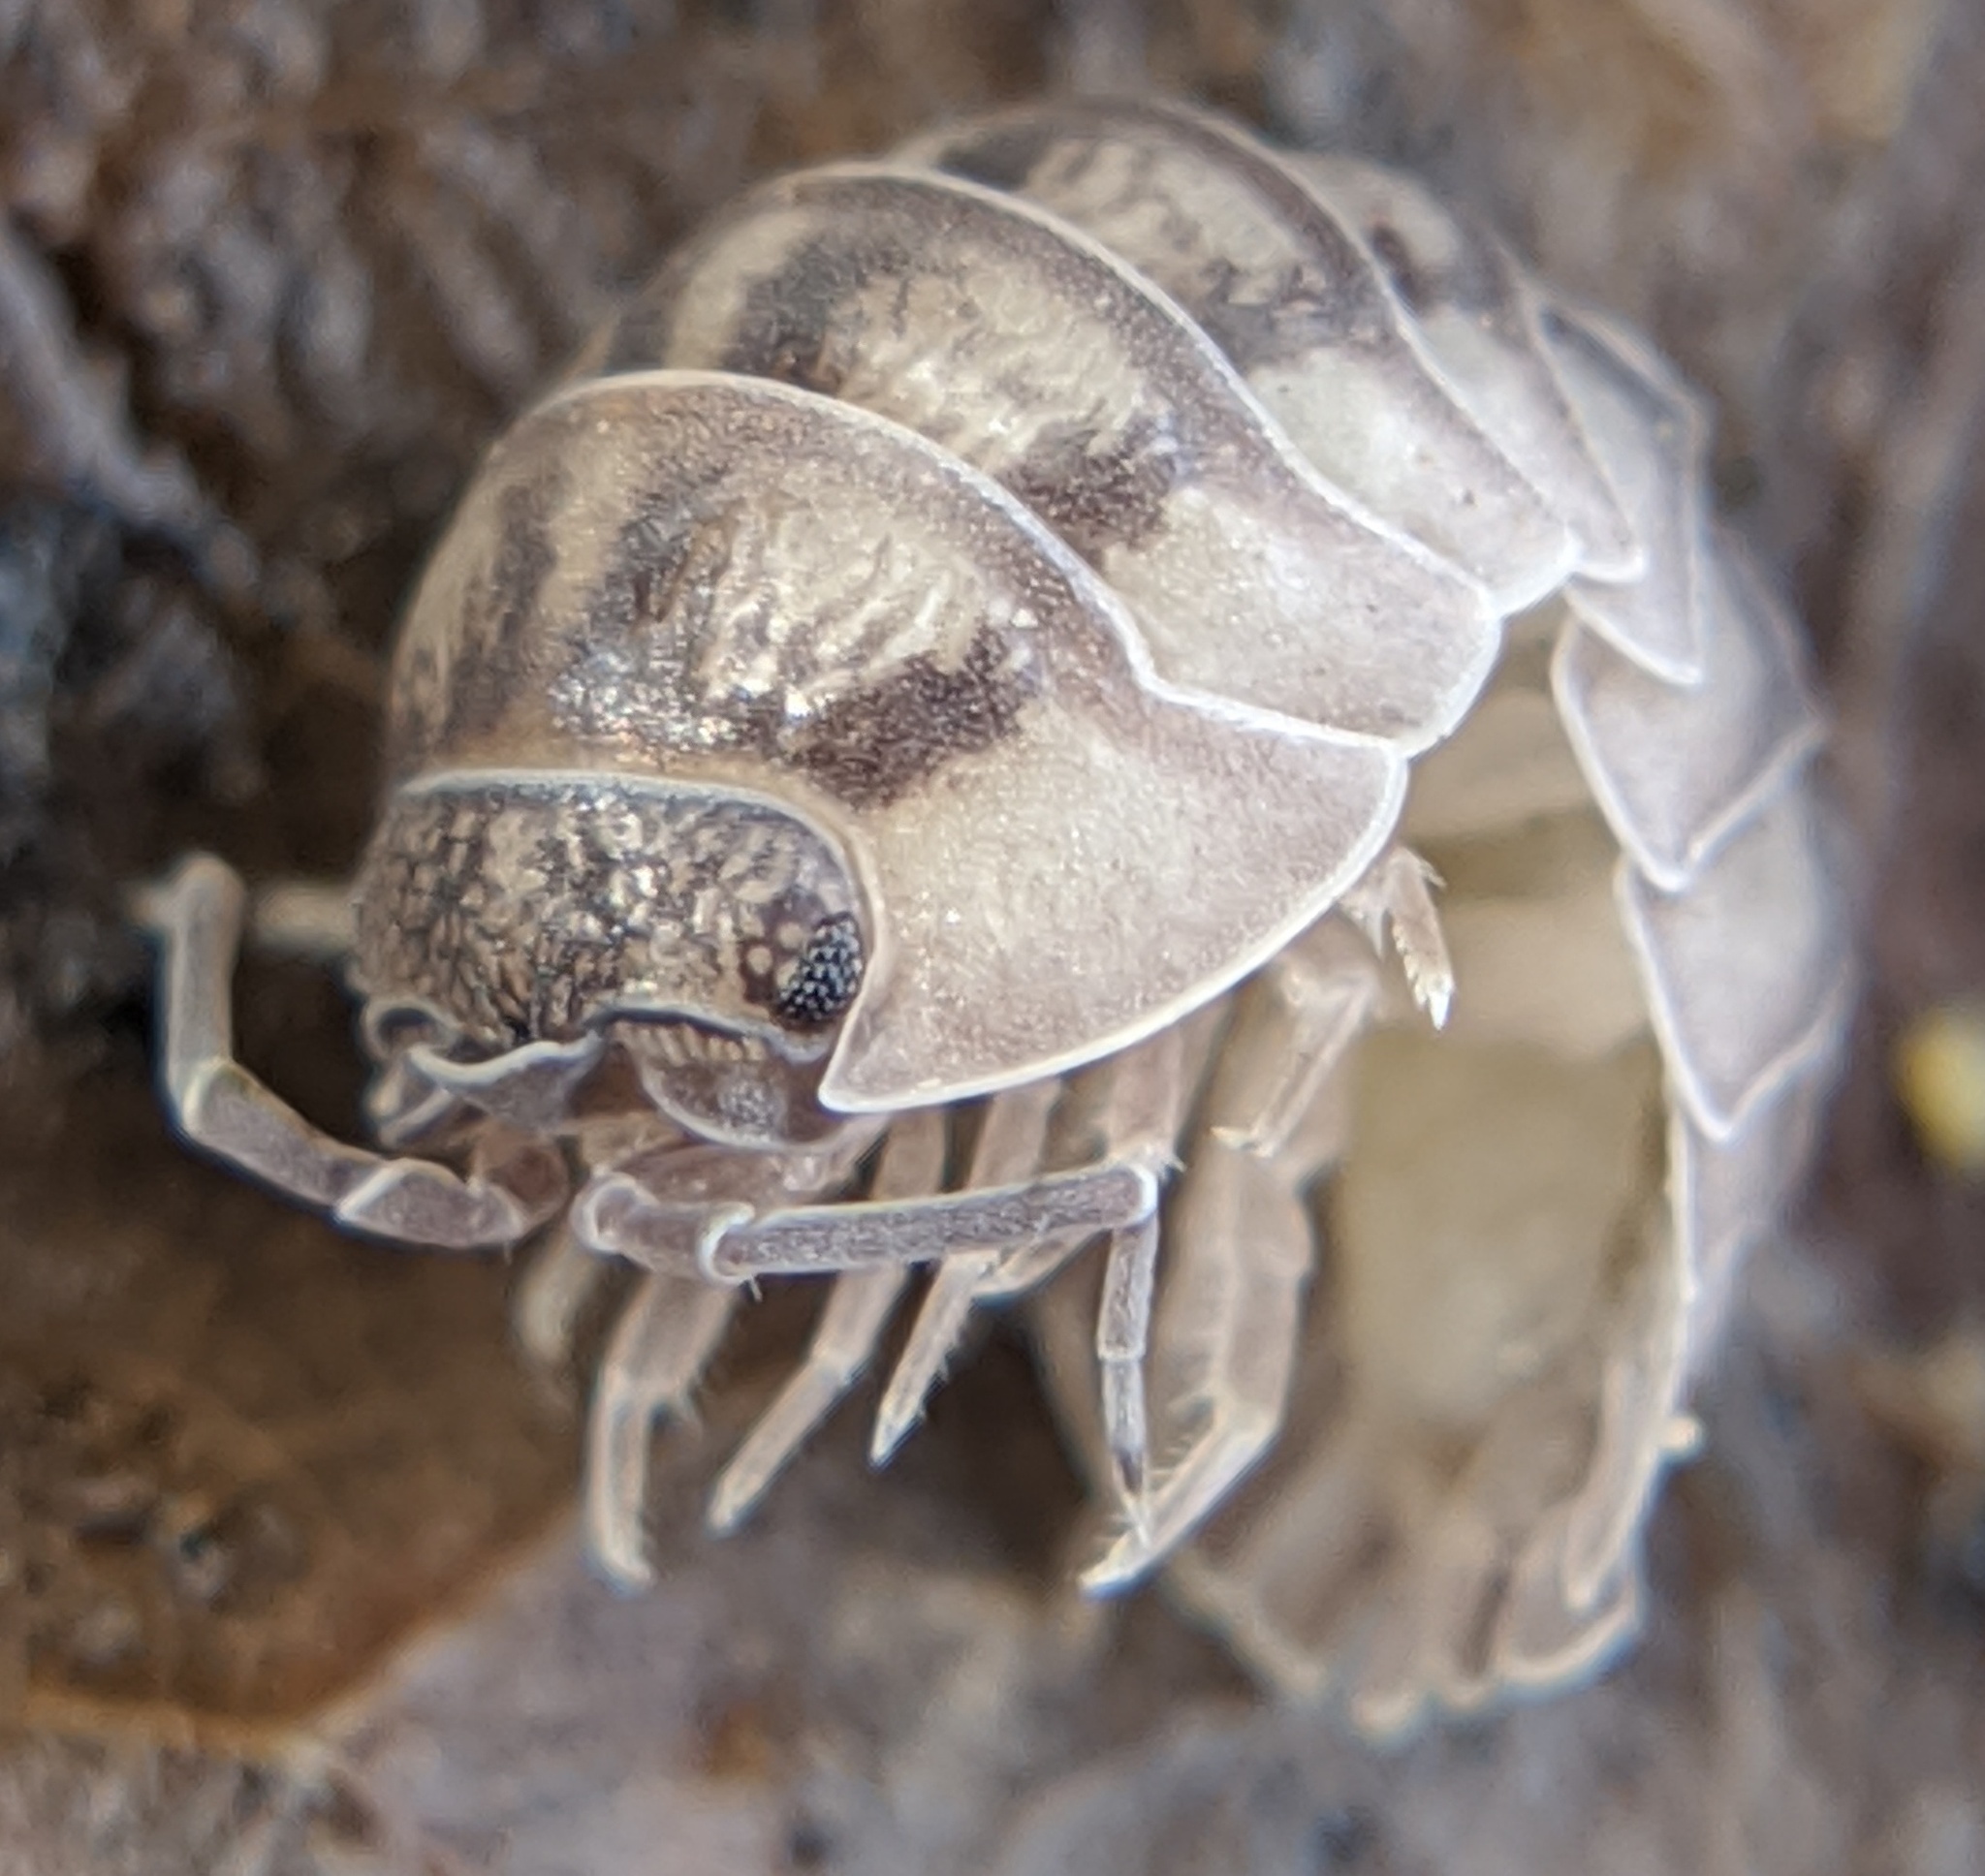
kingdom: Animalia
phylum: Arthropoda
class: Malacostraca
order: Isopoda
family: Armadillidiidae
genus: Armadillidium
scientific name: Armadillidium nasatum
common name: Isopod
